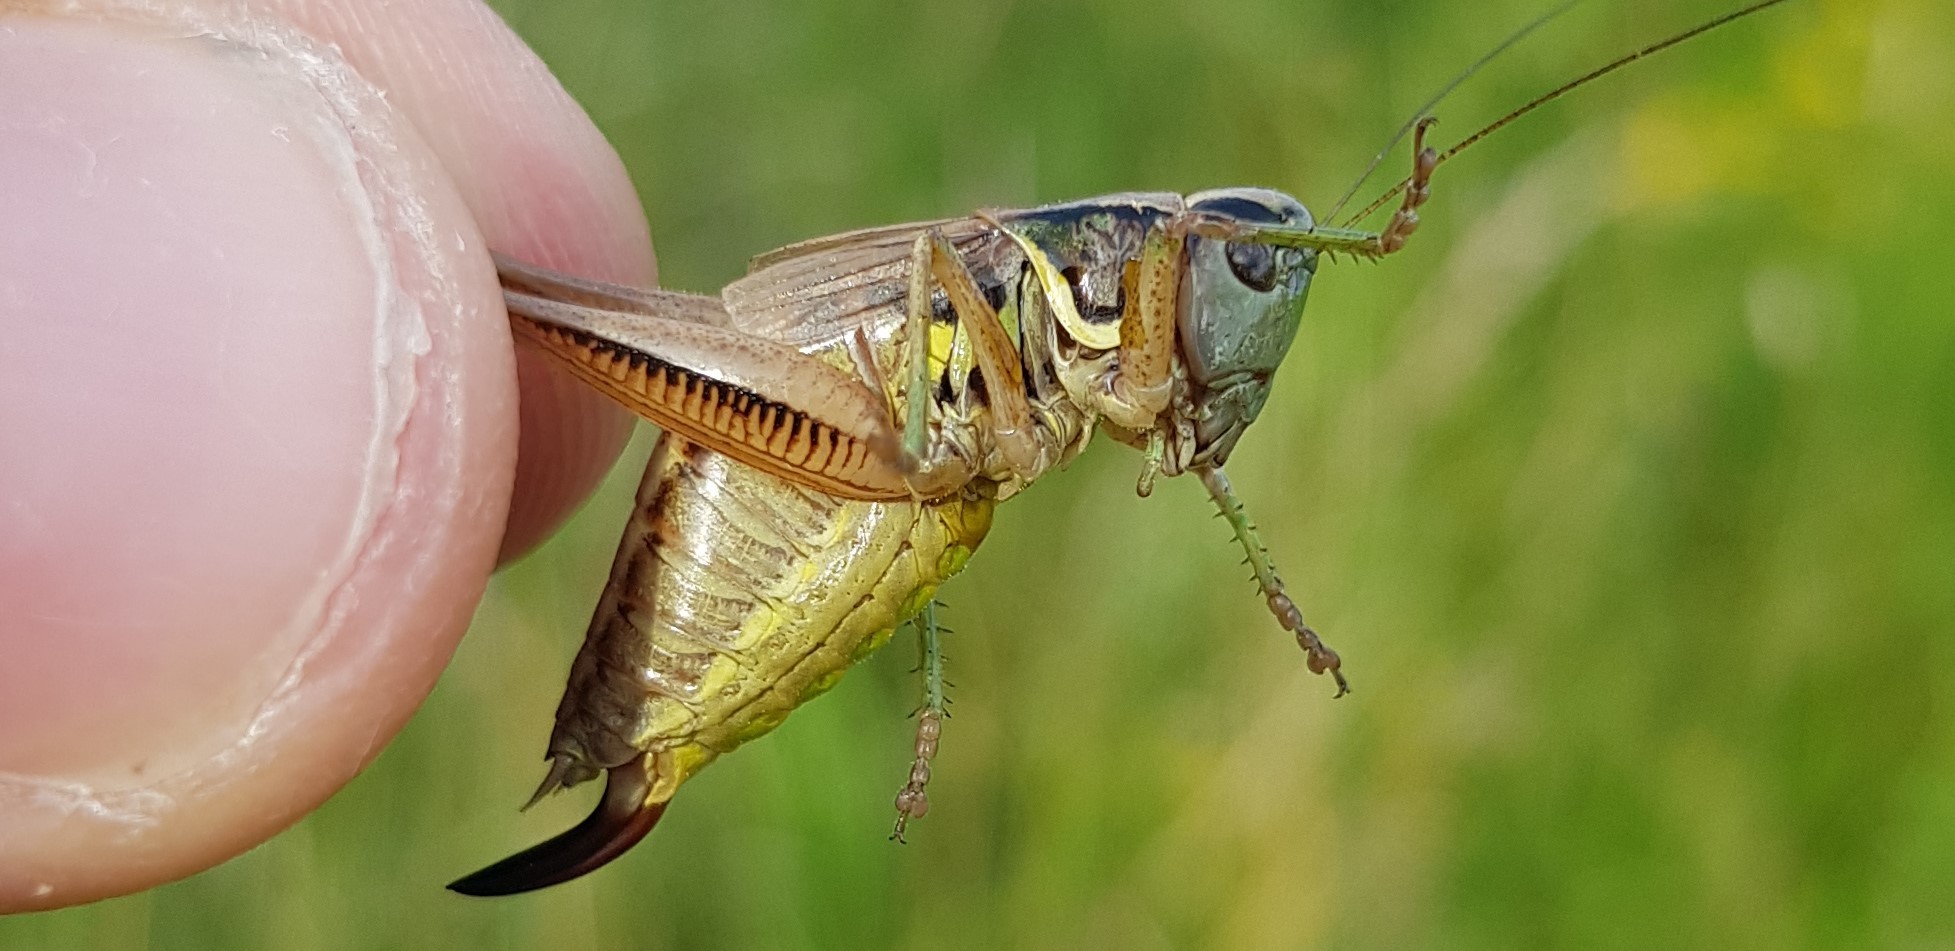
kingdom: Animalia
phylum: Arthropoda
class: Insecta
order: Orthoptera
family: Tettigoniidae
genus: Roeseliana
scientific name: Roeseliana roeselii
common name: Roesel's bush cricket
